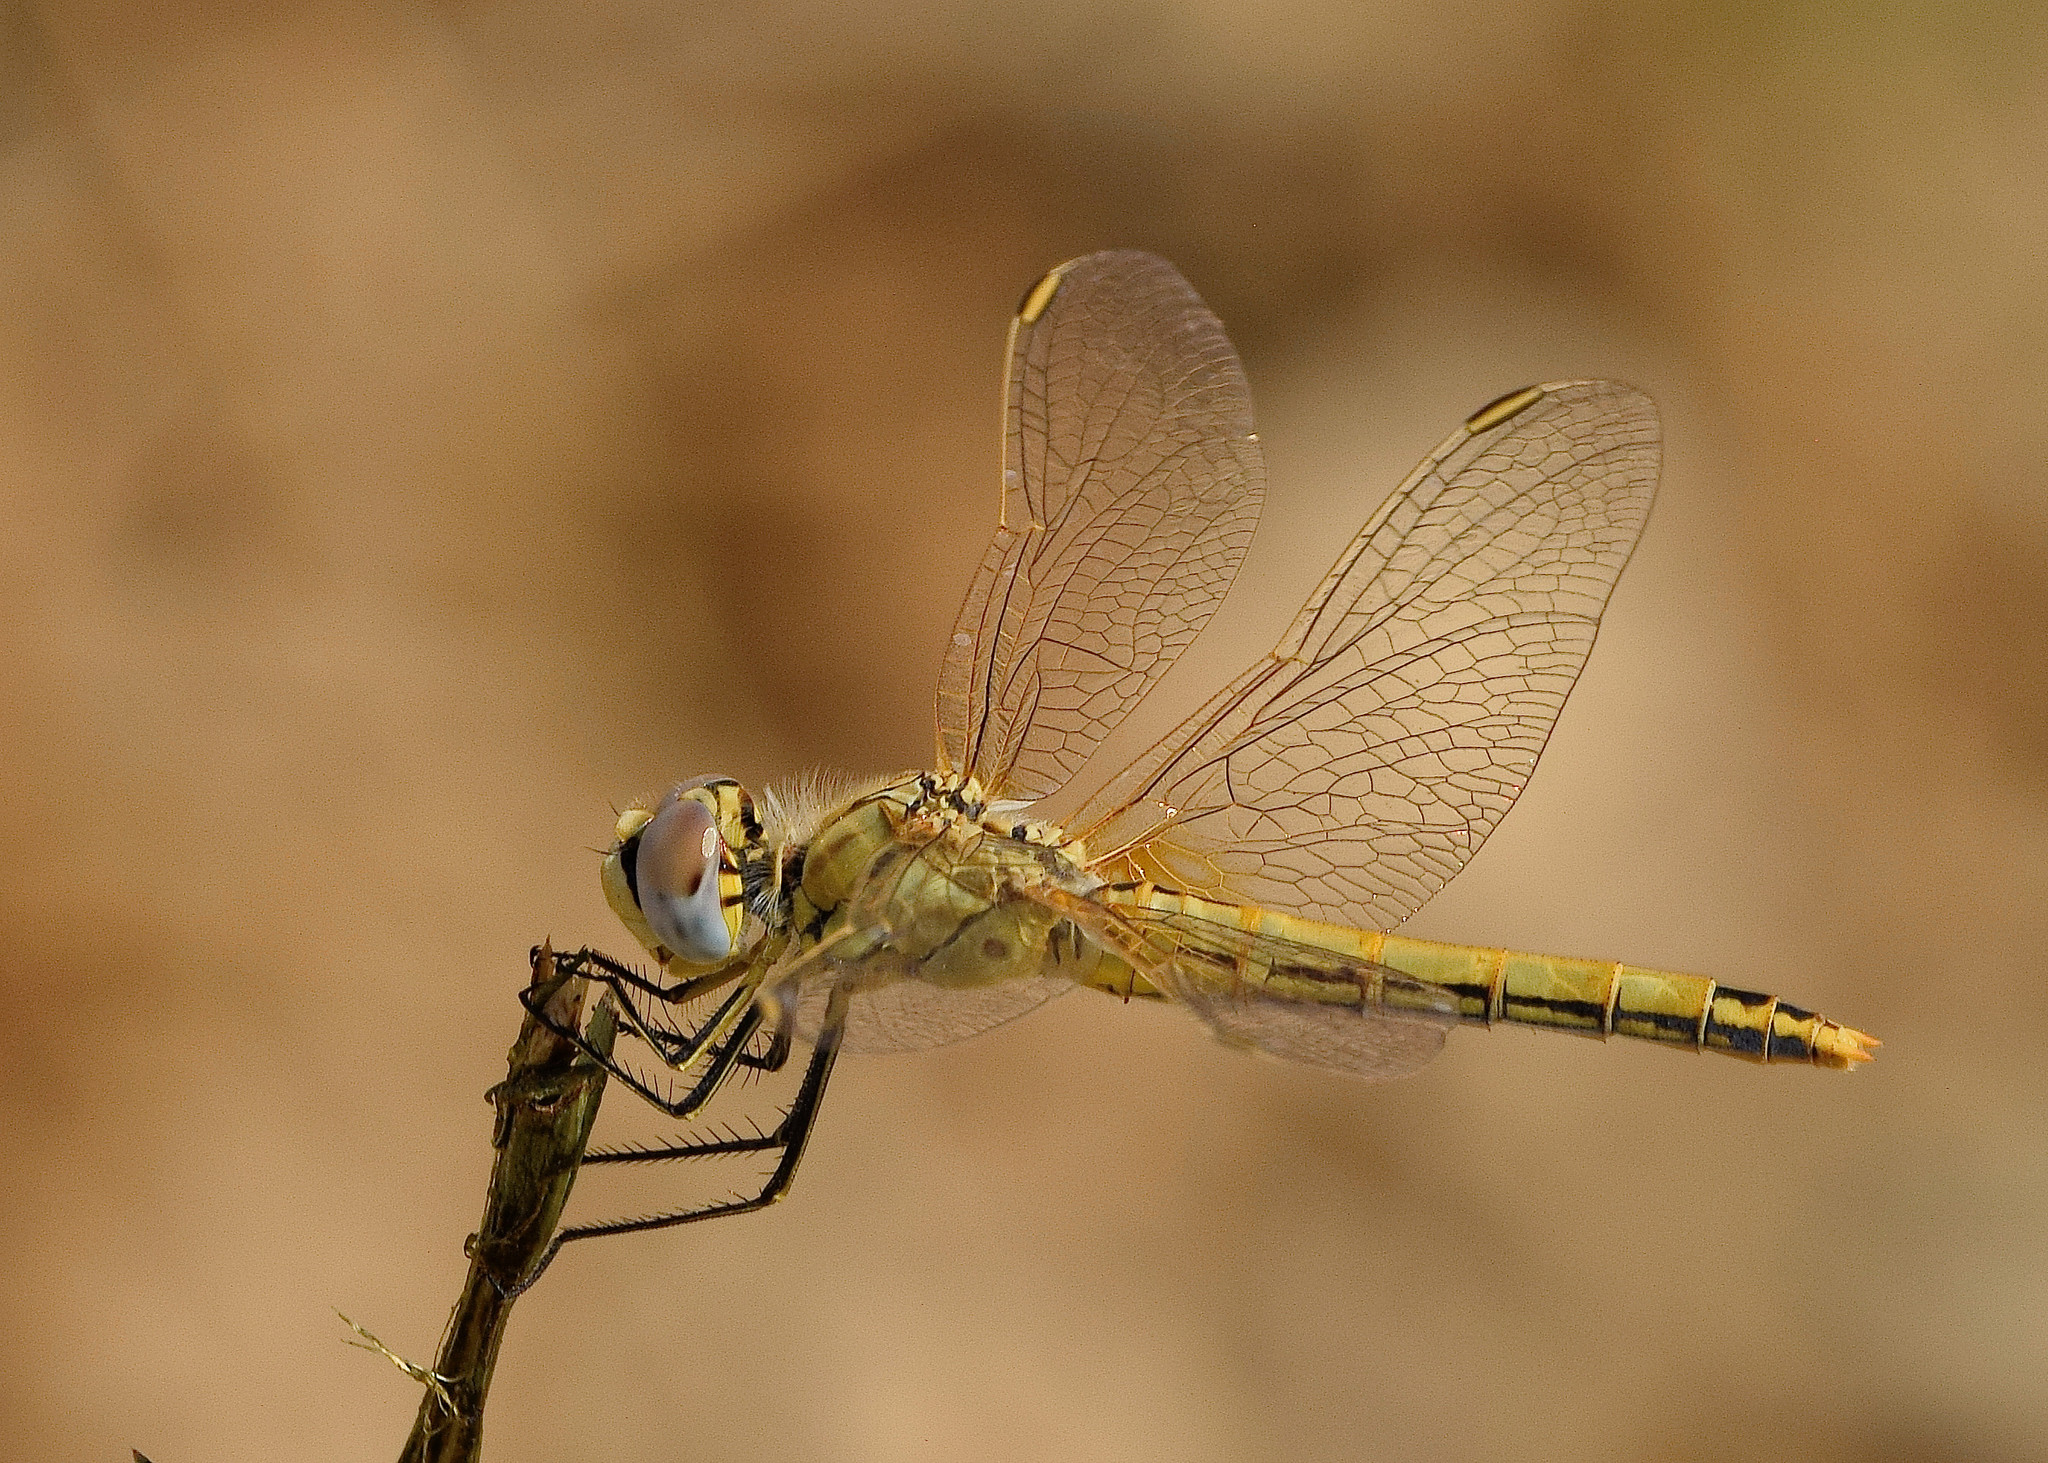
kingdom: Animalia
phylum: Arthropoda
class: Insecta
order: Odonata
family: Libellulidae
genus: Sympetrum
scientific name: Sympetrum fonscolombii
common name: Red-veined darter
